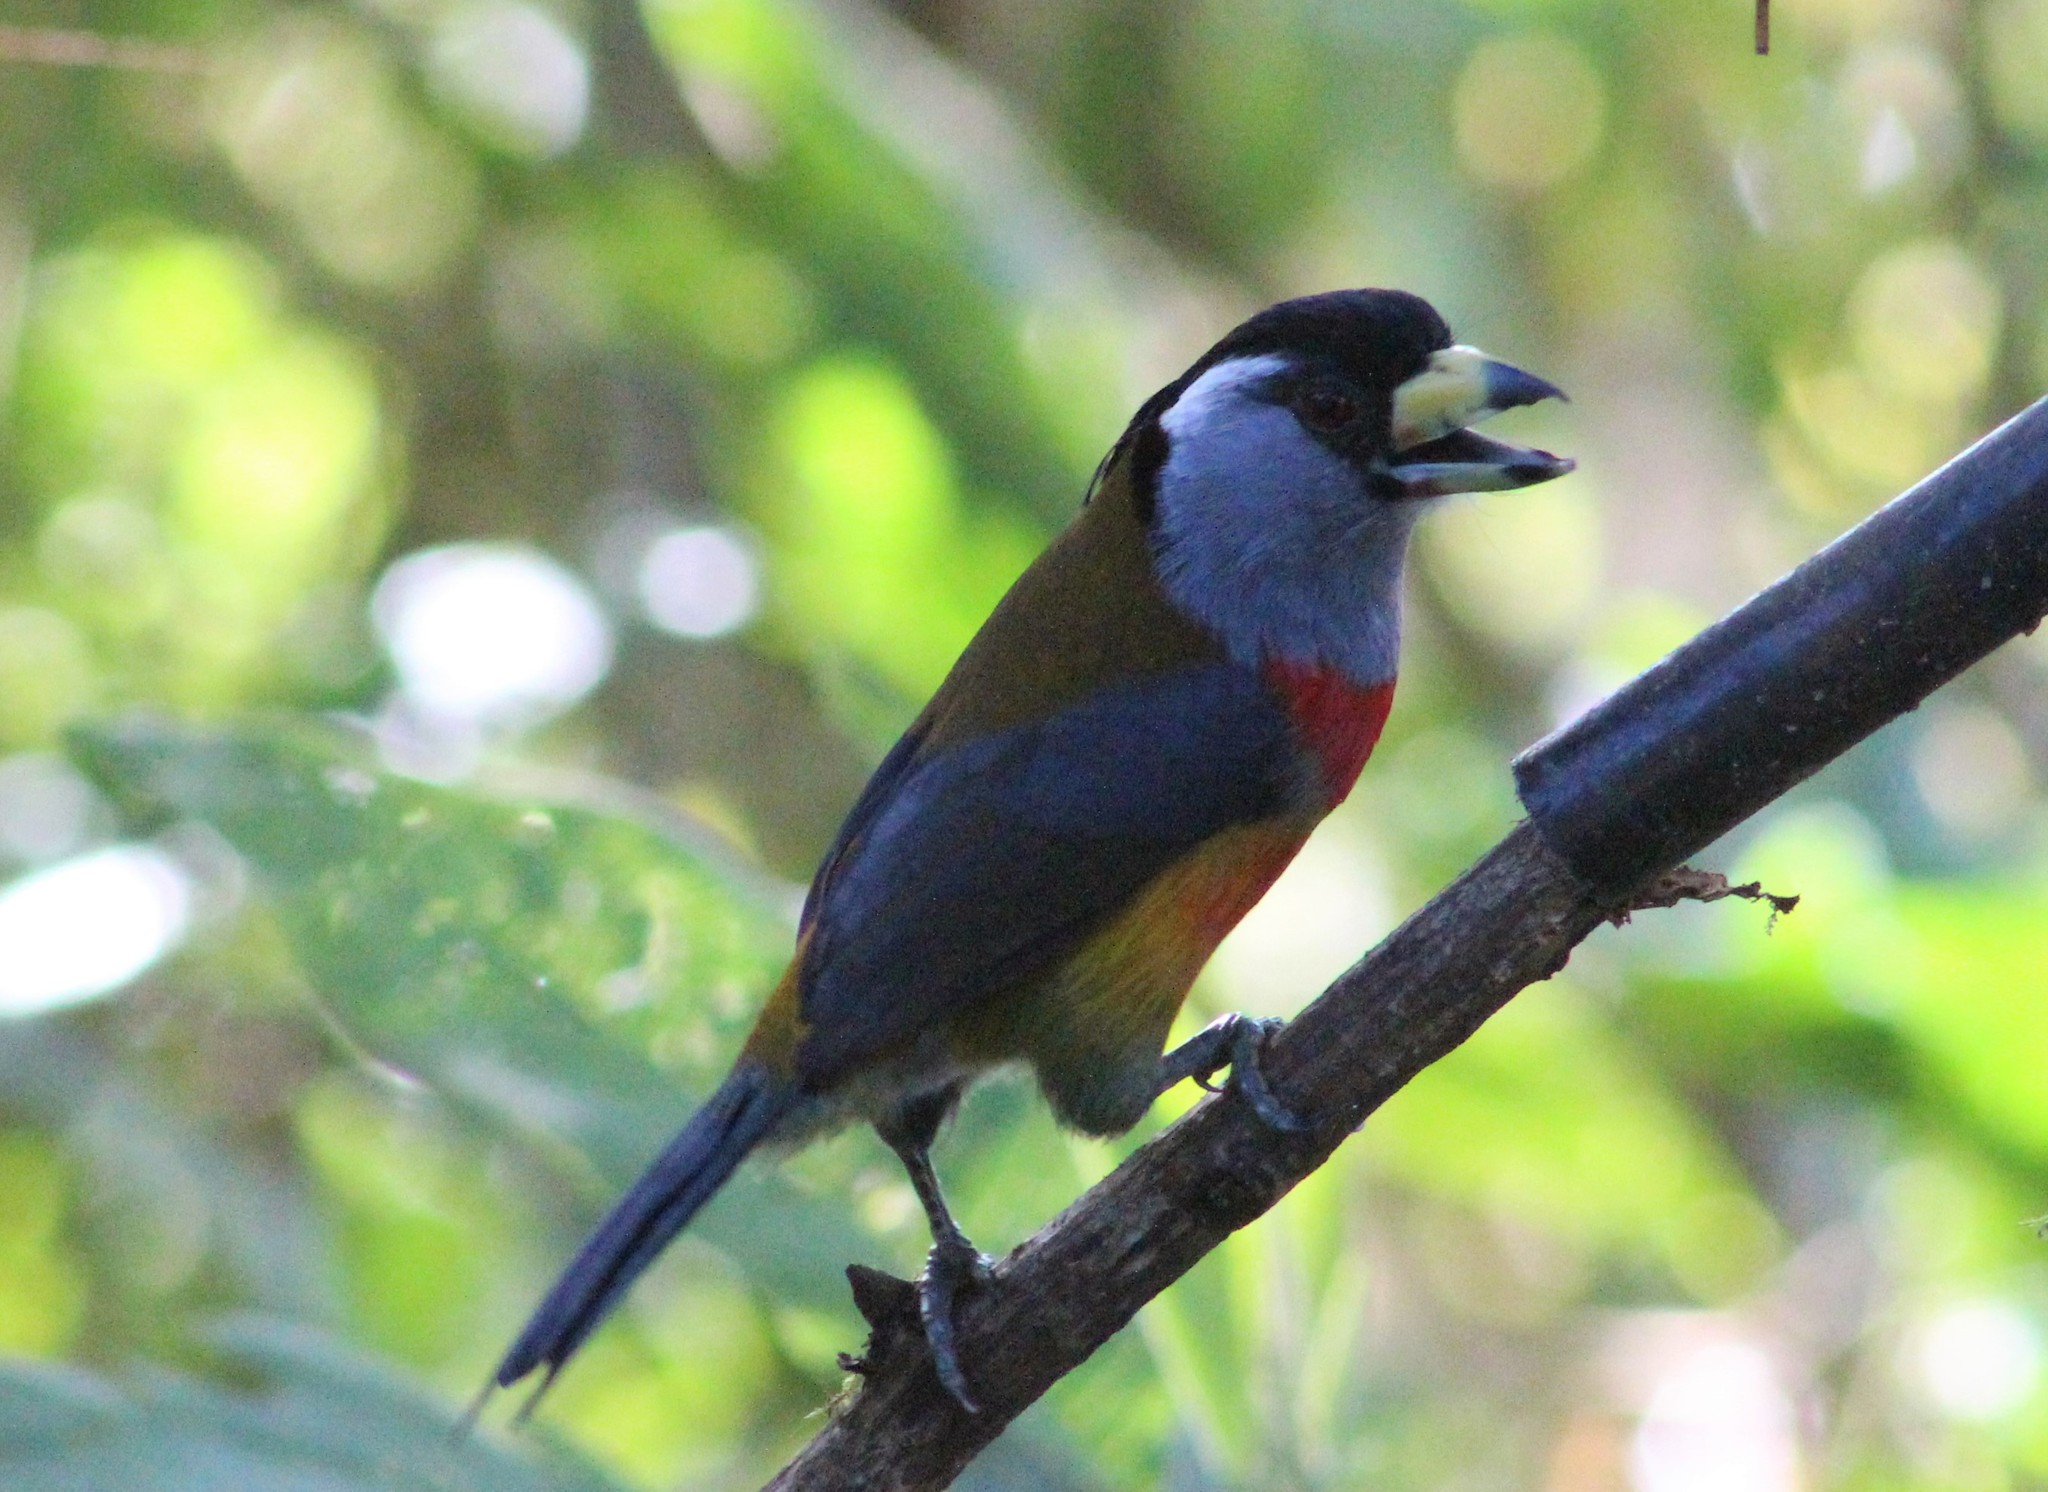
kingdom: Animalia
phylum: Chordata
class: Aves
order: Piciformes
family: Semnornithidae
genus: Semnornis
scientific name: Semnornis ramphastinus
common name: Toucan barbet
